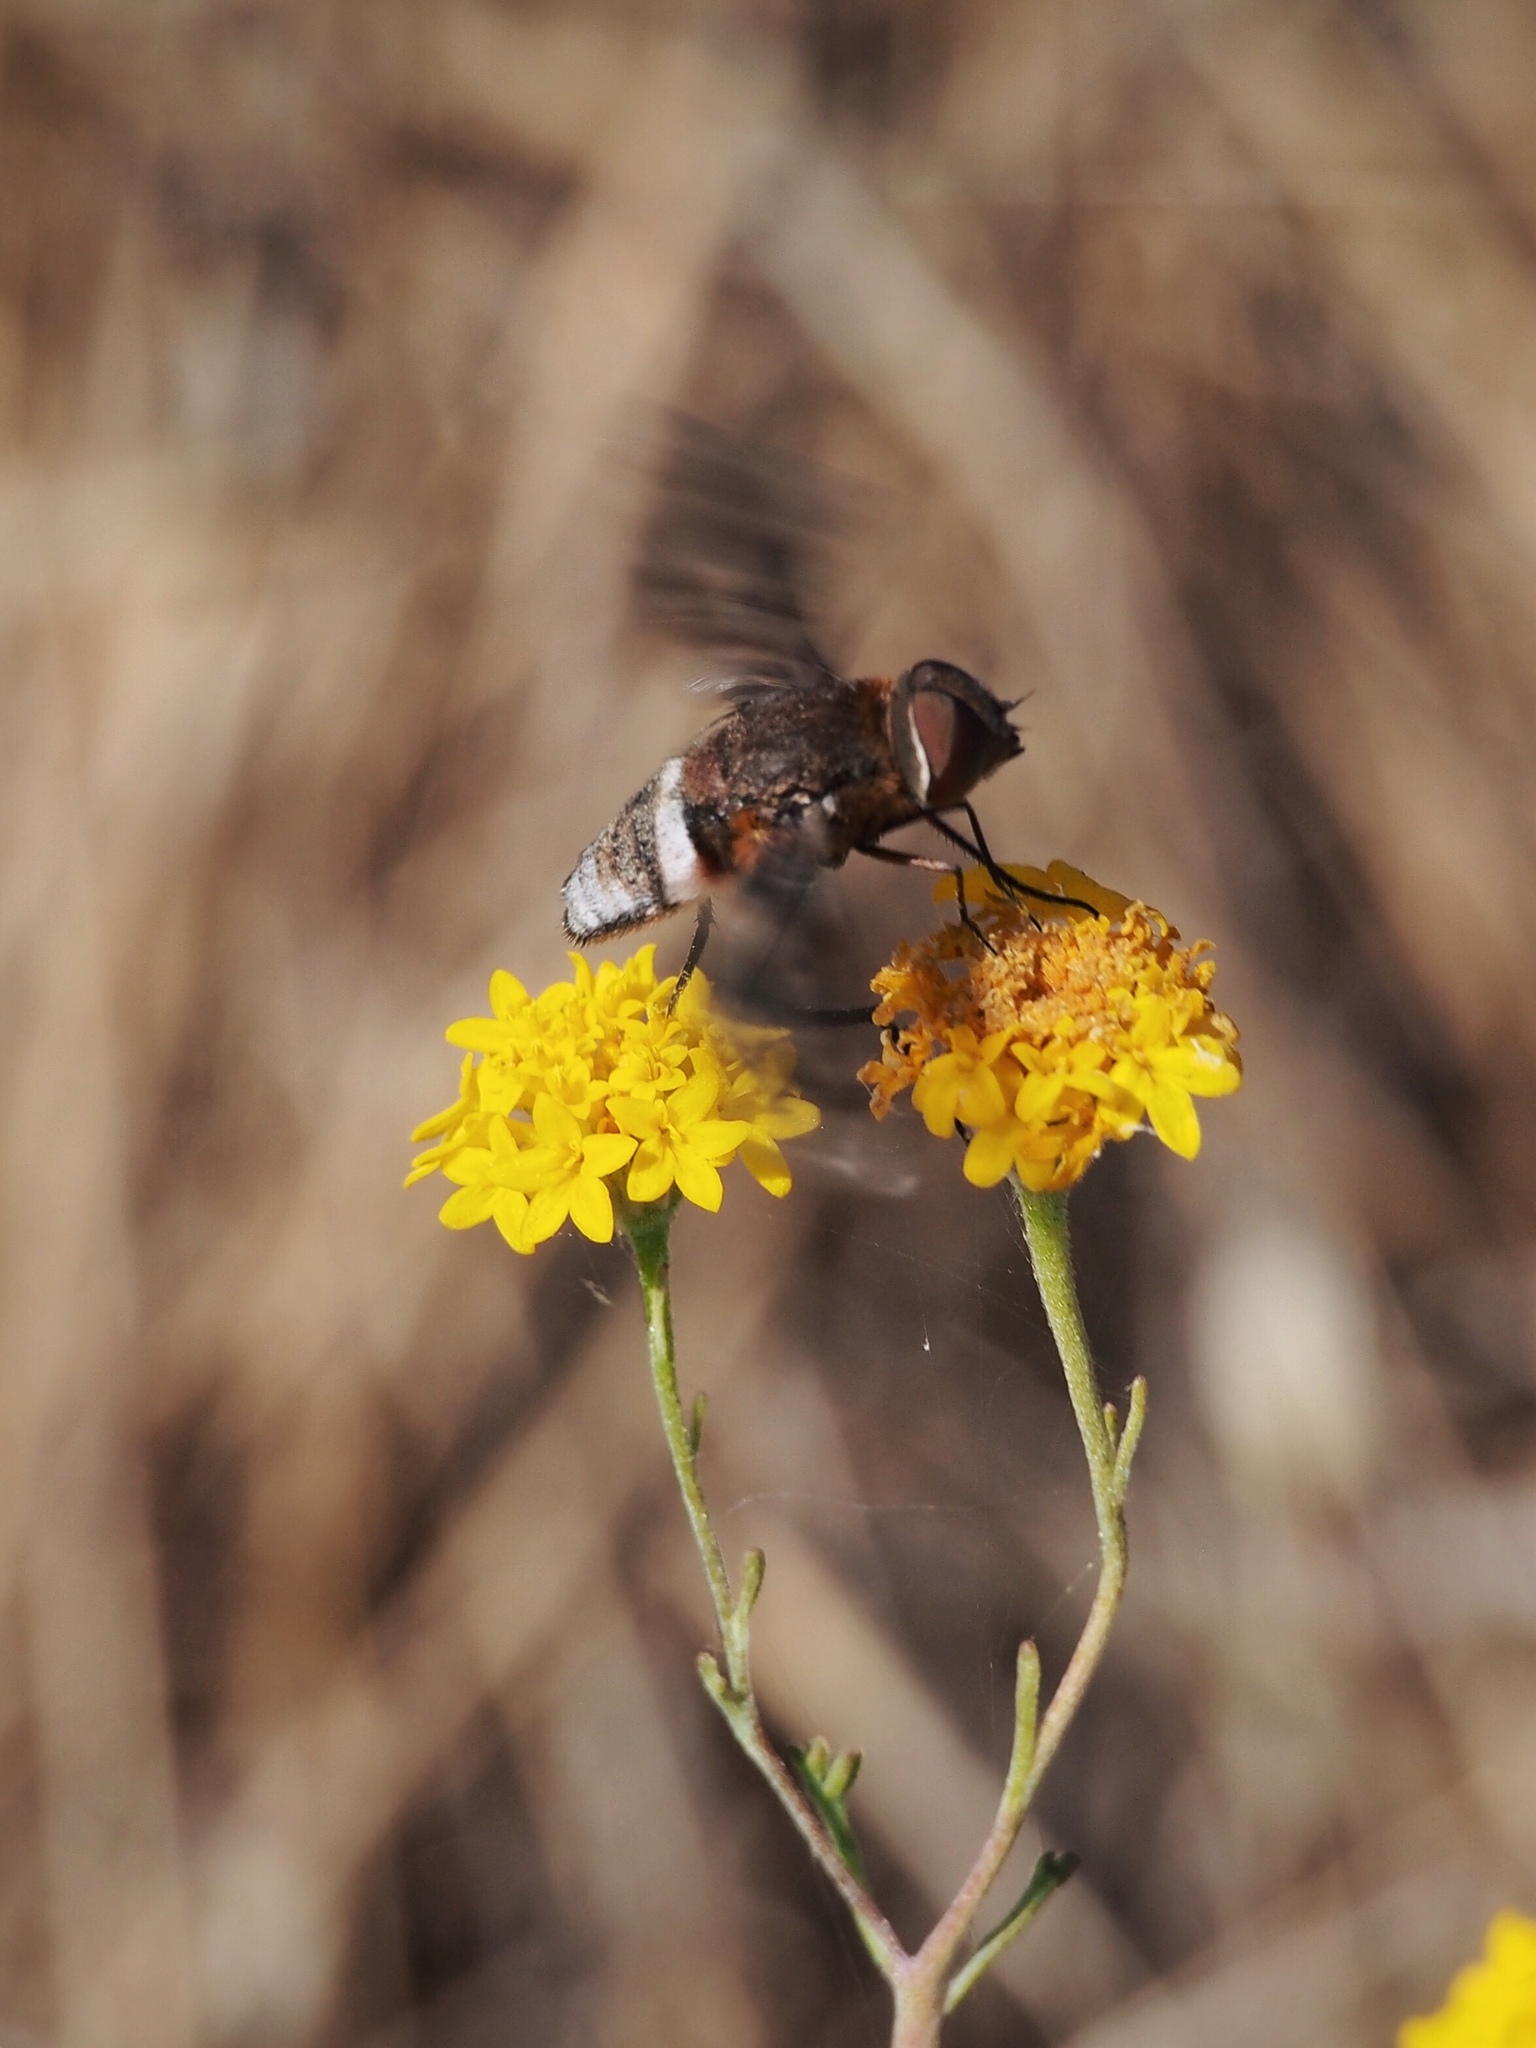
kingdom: Animalia
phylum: Arthropoda
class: Insecta
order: Diptera
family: Bombyliidae
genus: Nyia
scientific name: Nyia gazophylax
